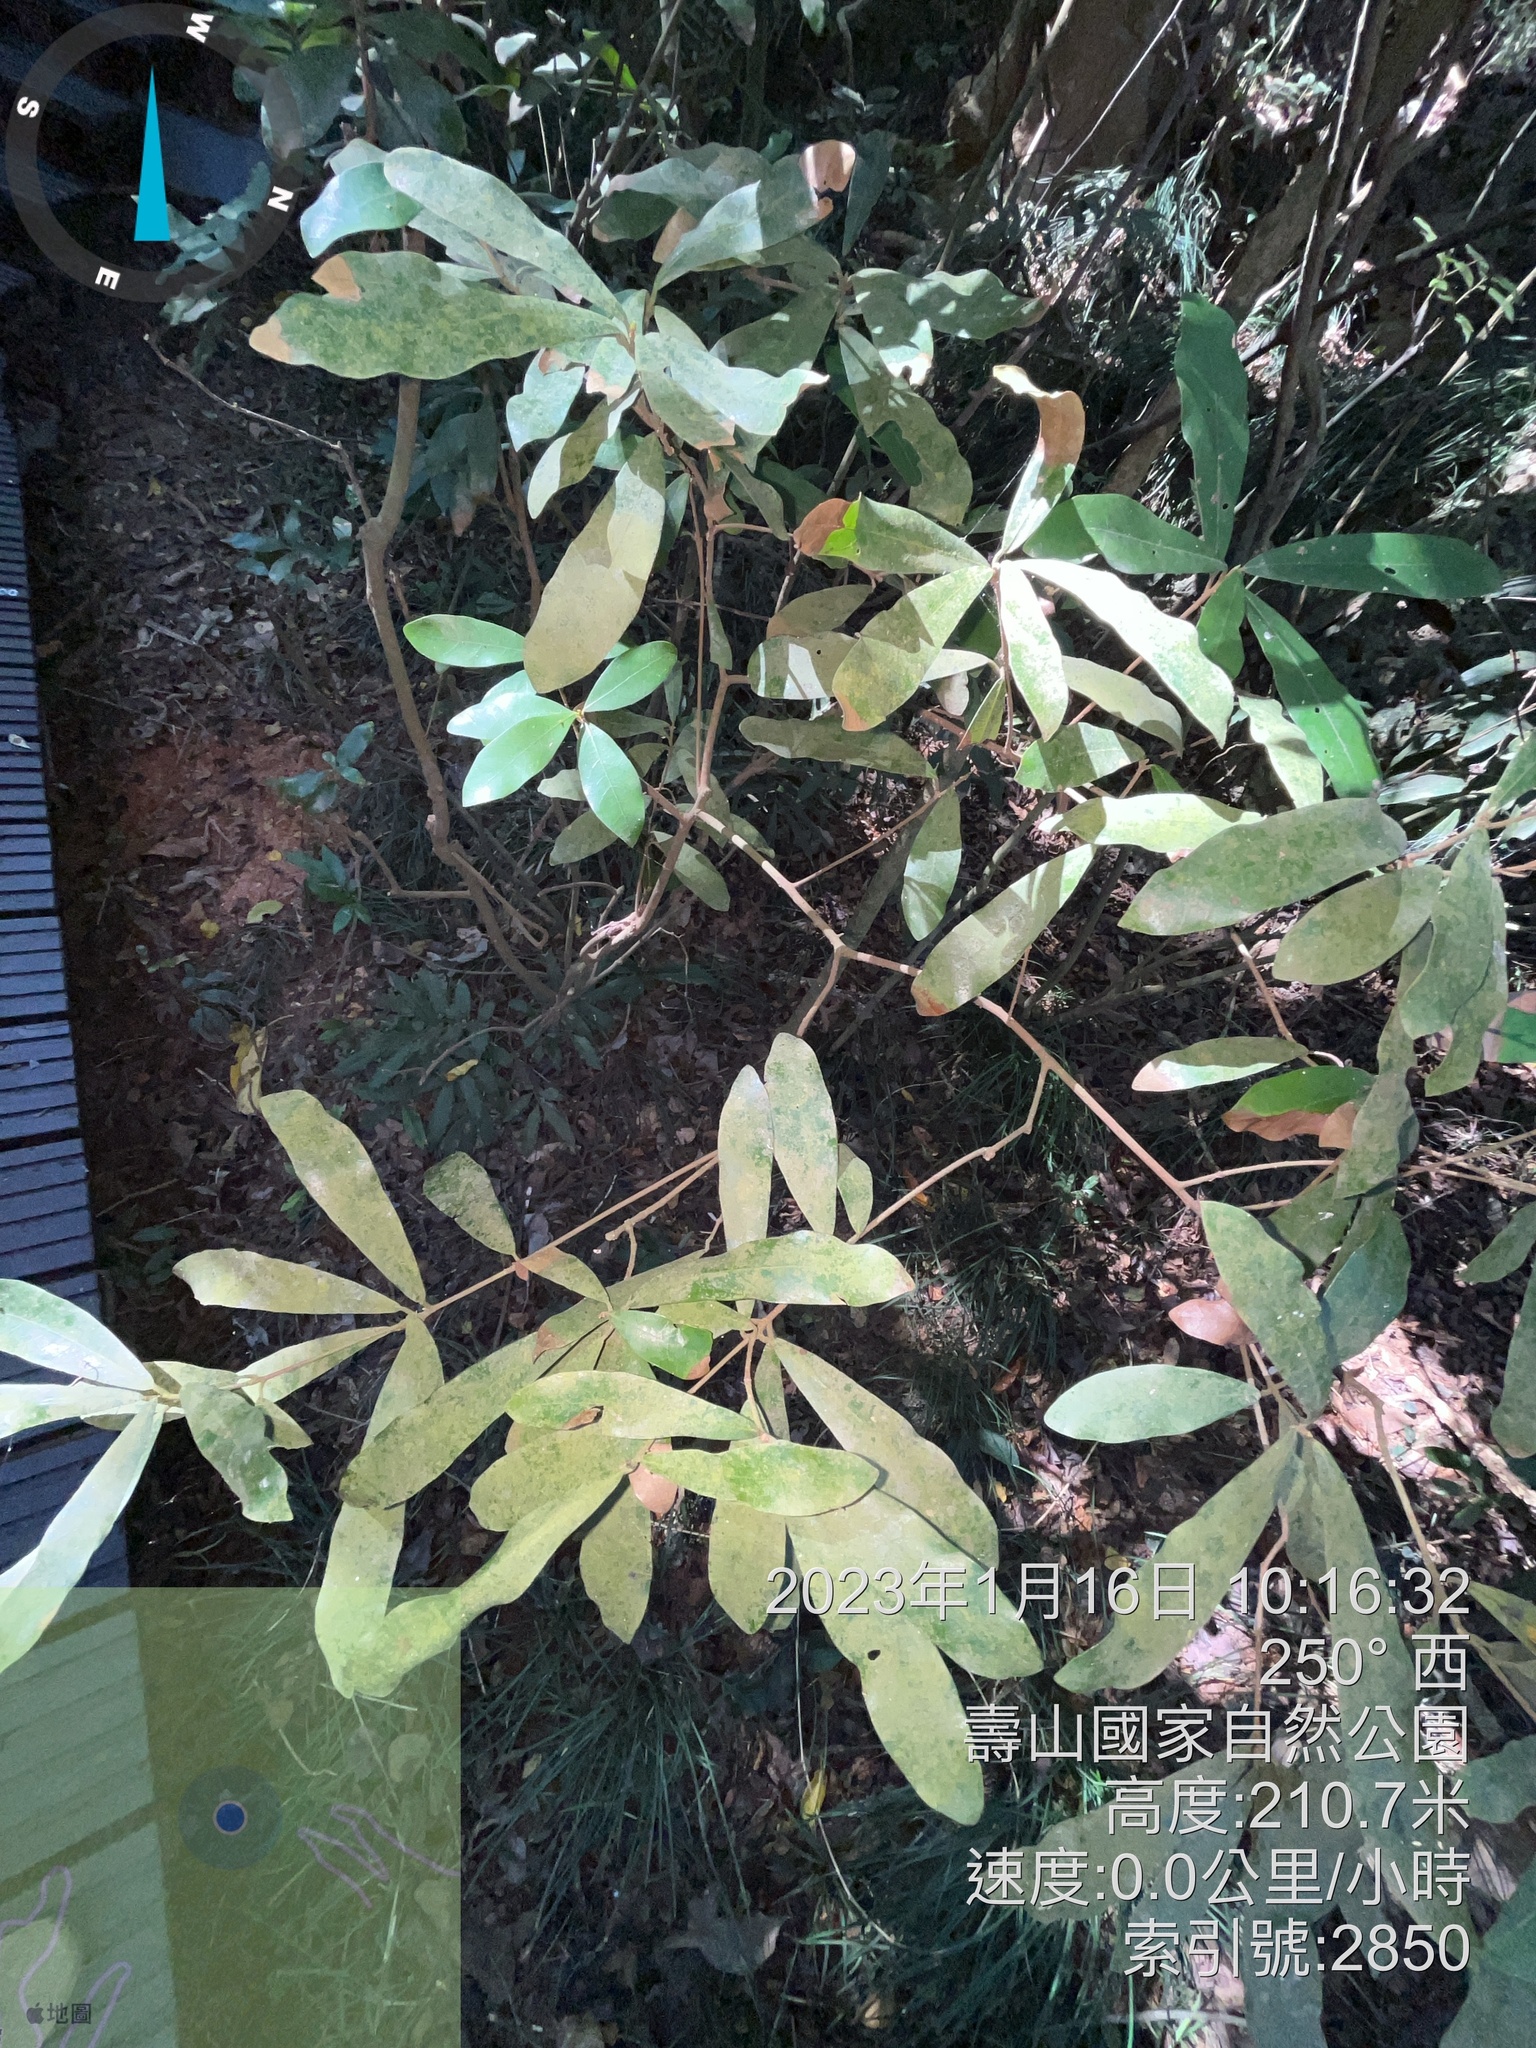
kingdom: Plantae
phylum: Tracheophyta
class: Magnoliopsida
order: Laurales
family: Lauraceae
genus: Litsea
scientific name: Litsea hypophaea
